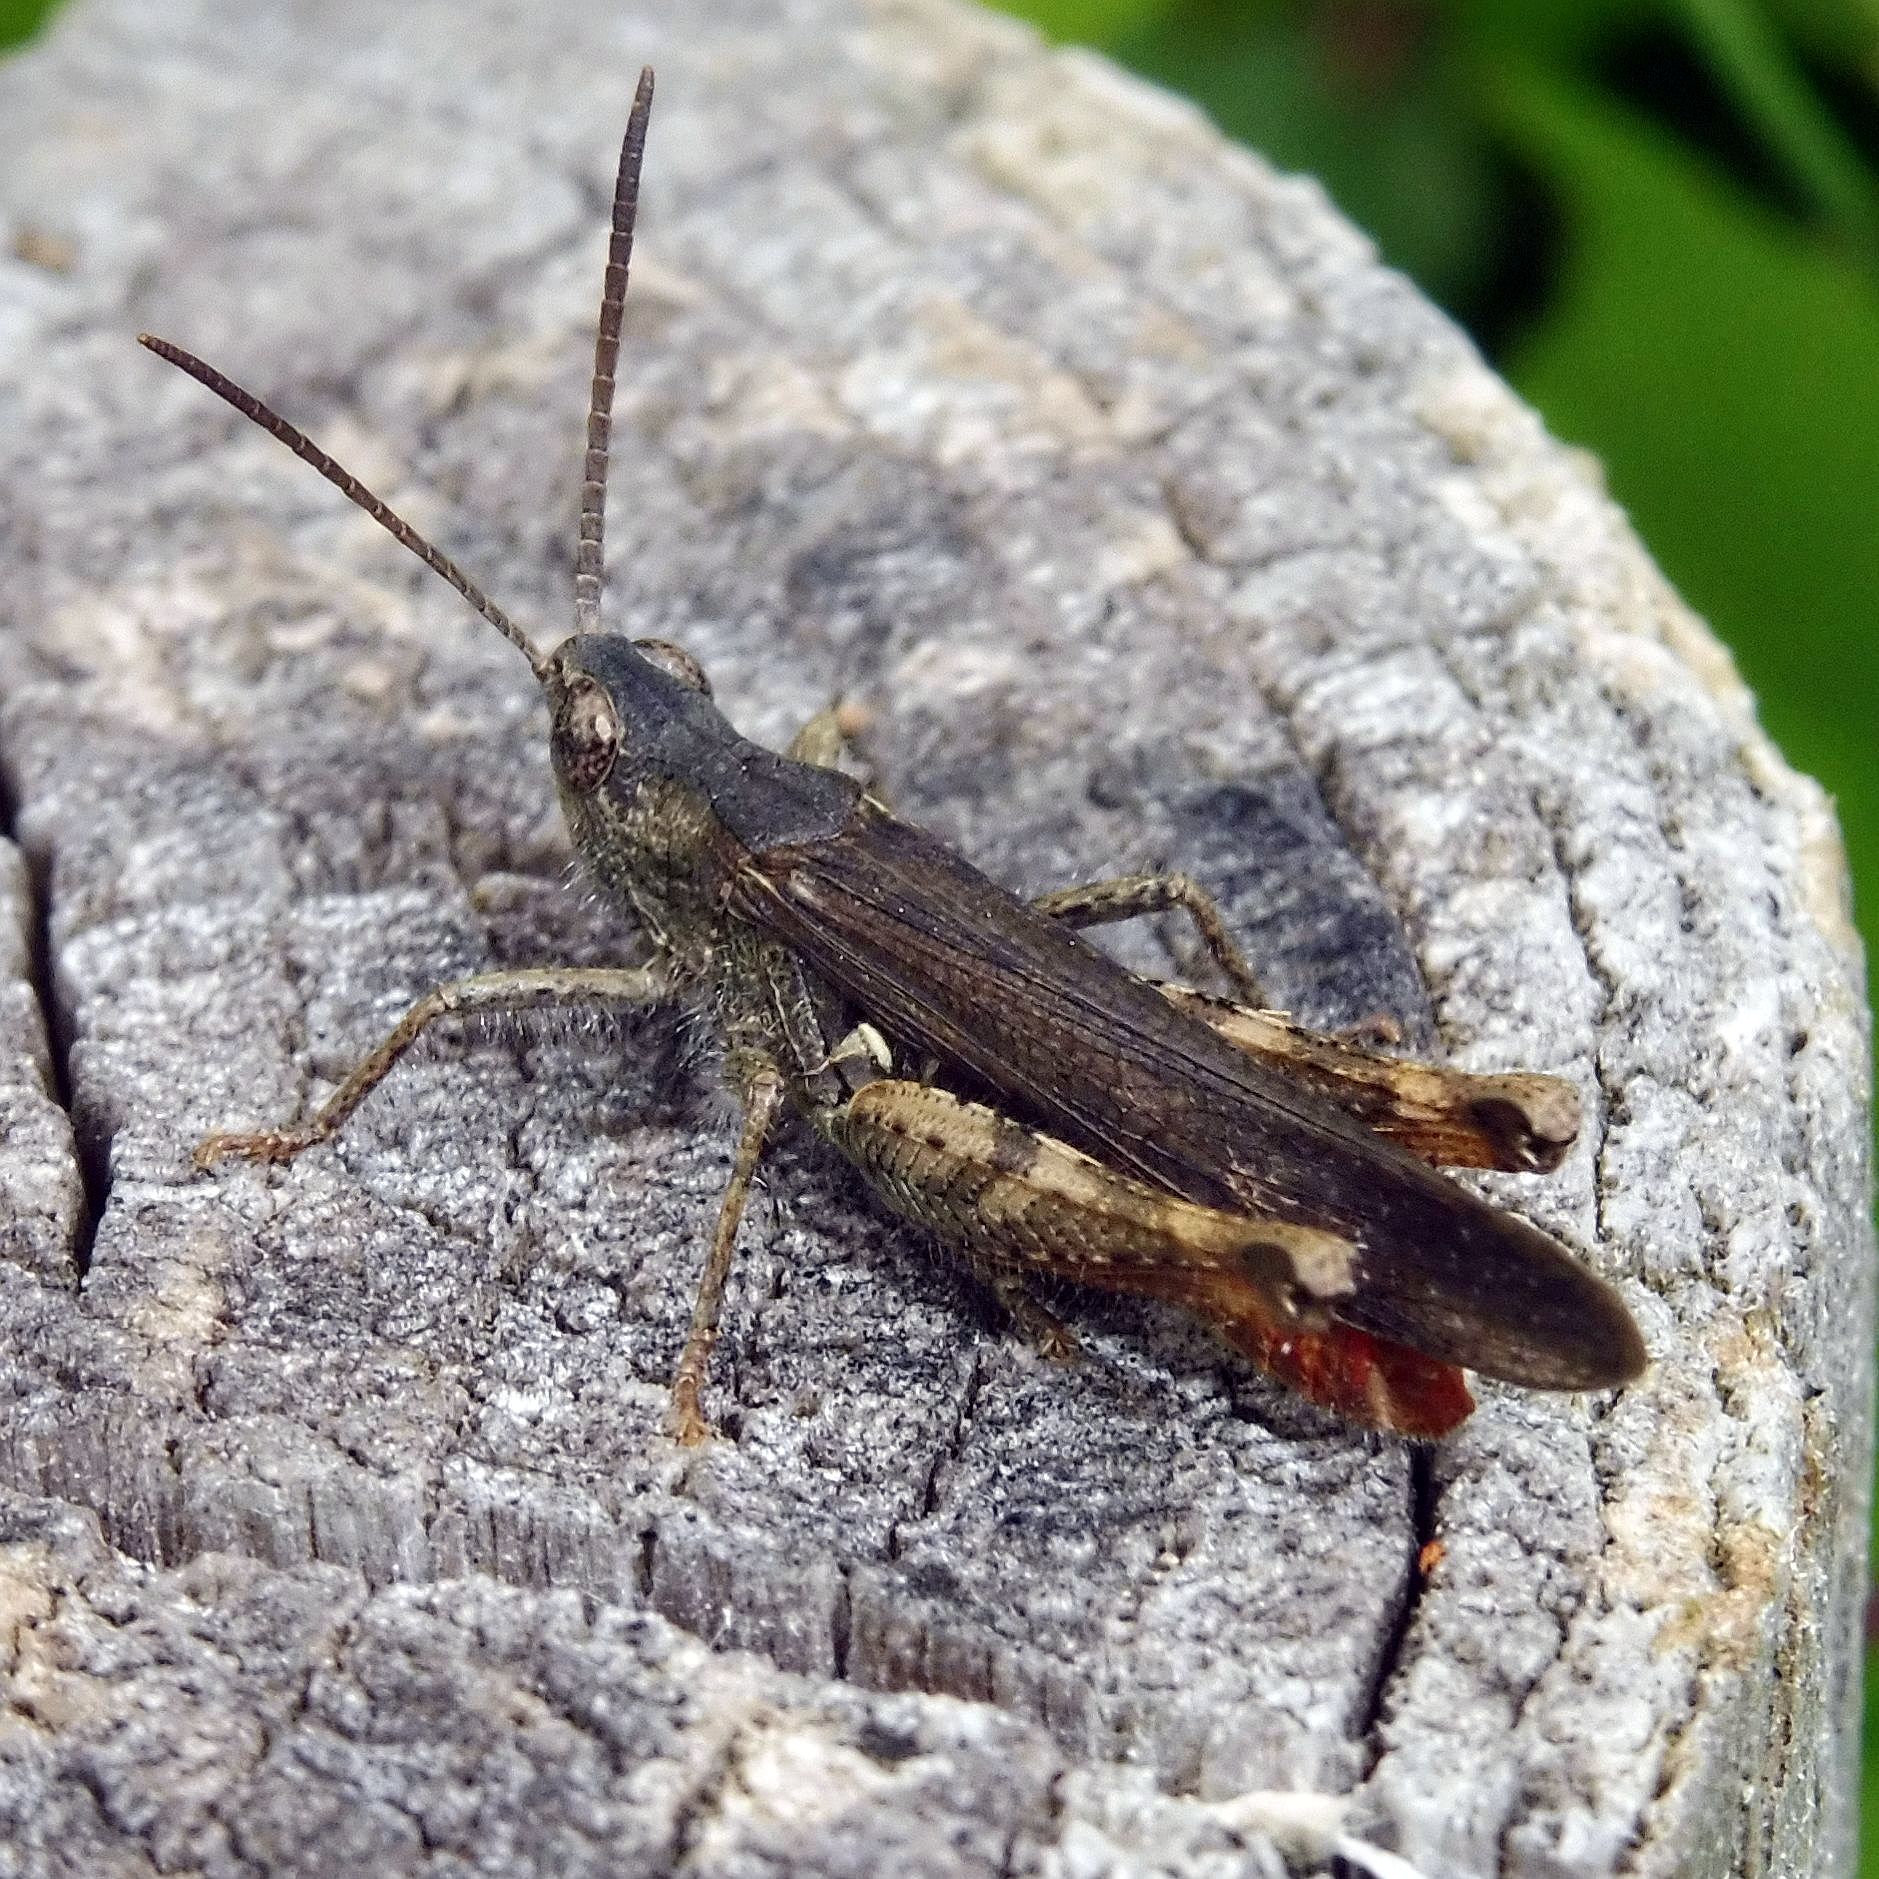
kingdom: Animalia
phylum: Arthropoda
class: Insecta
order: Orthoptera
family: Acrididae
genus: Chorthippus
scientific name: Chorthippus brunneus
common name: Field grasshopper
